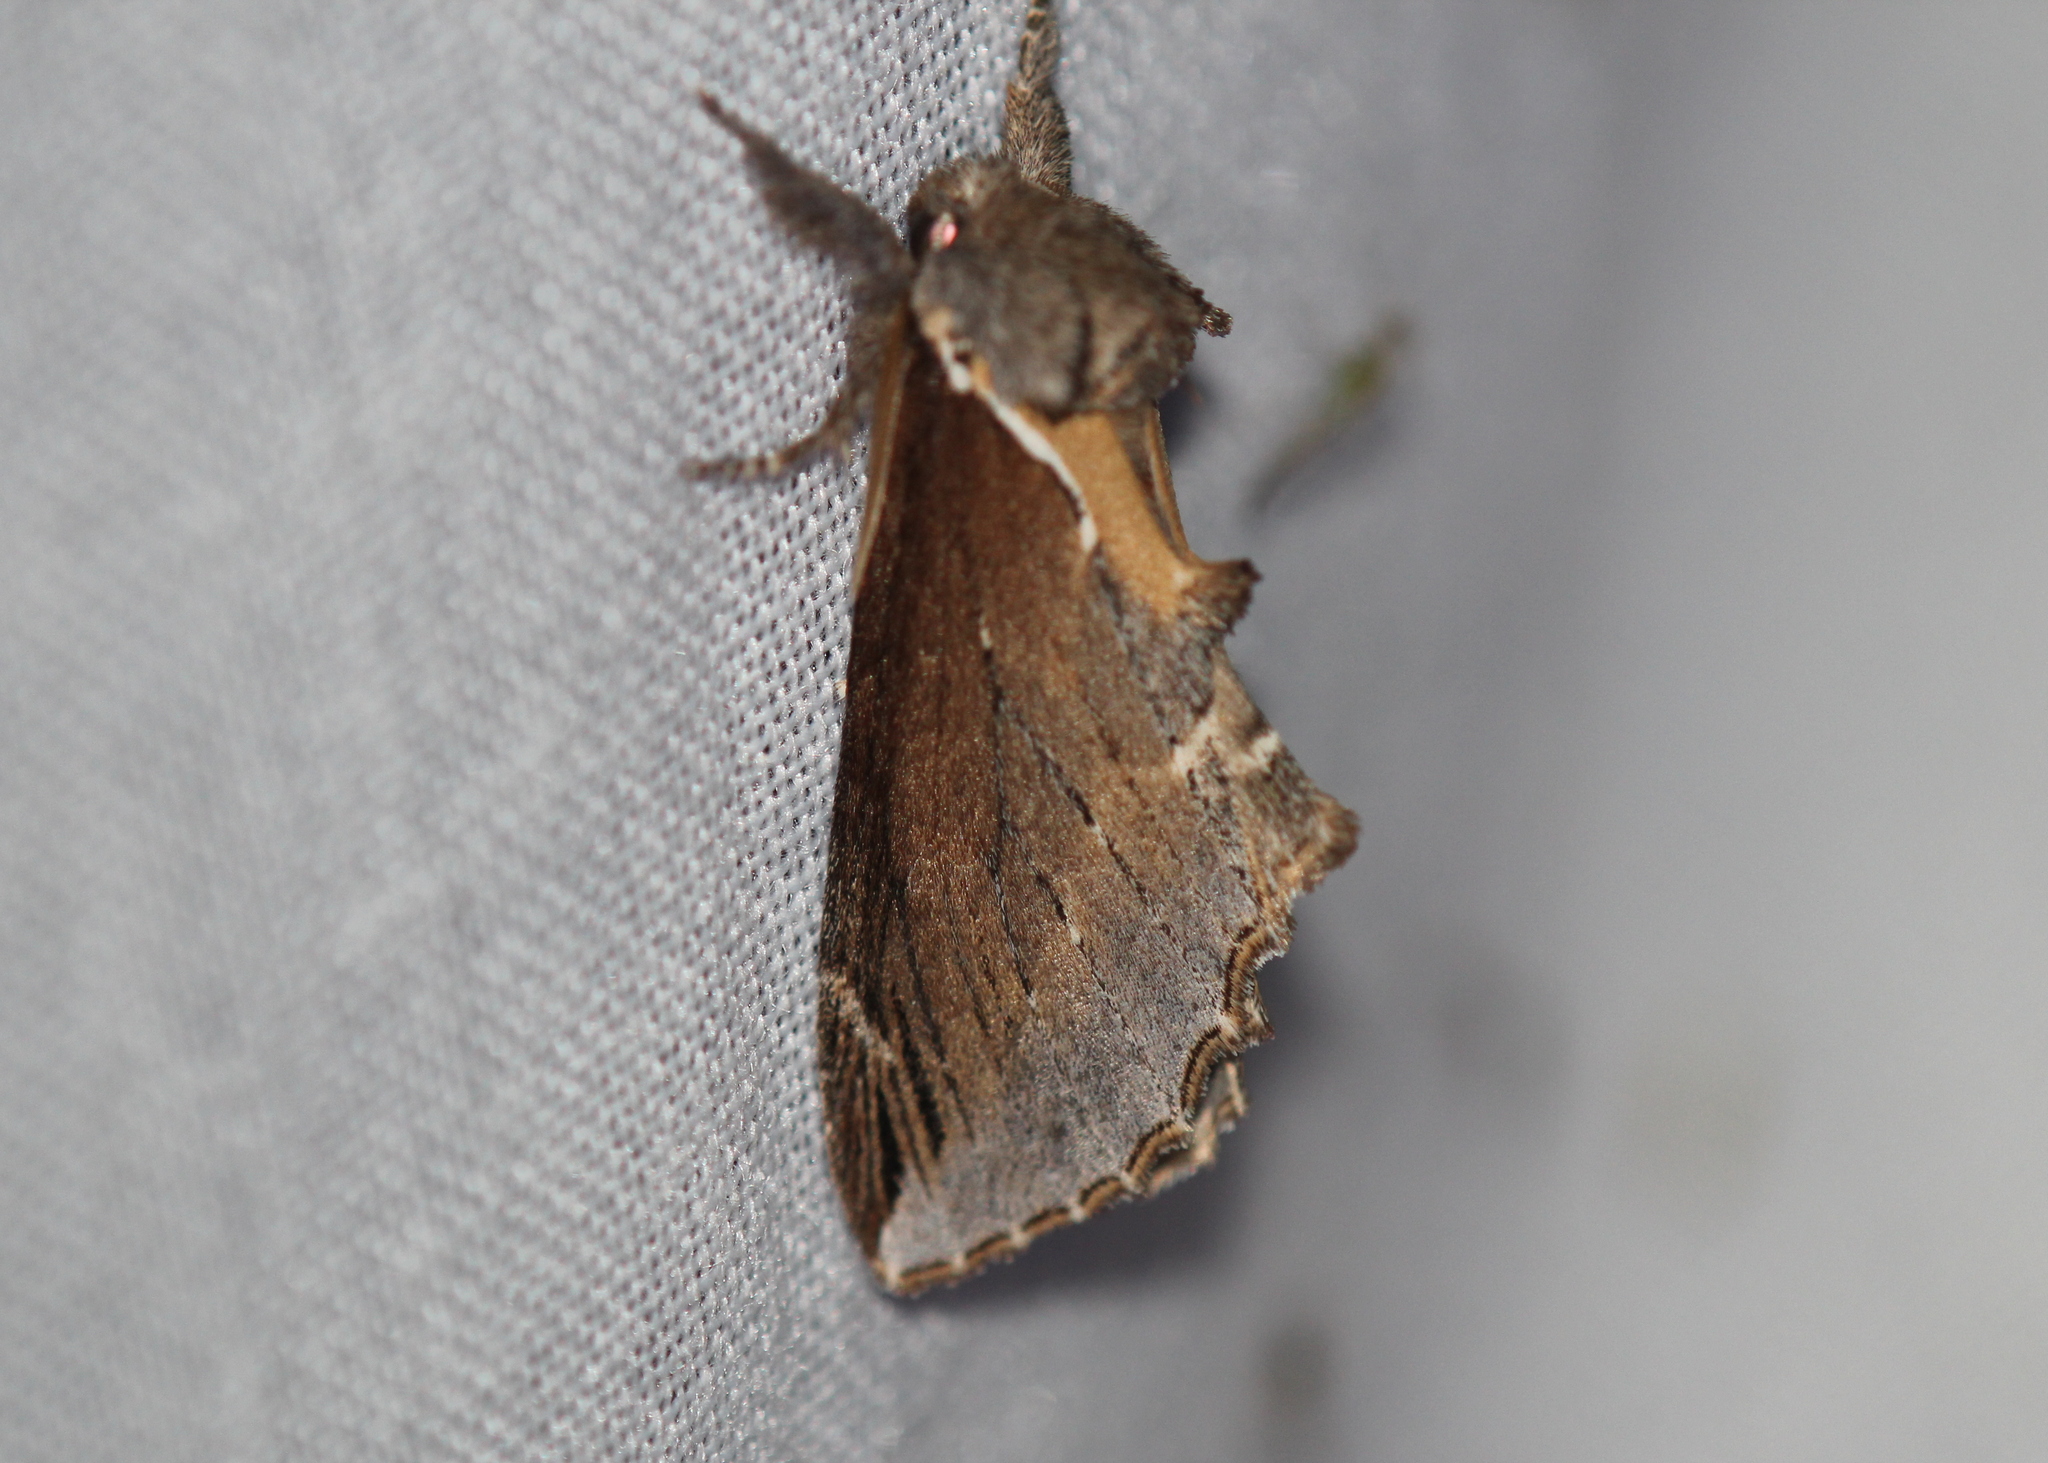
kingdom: Animalia
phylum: Arthropoda
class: Insecta
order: Lepidoptera
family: Notodontidae
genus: Pheosidea
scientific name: Pheosidea elegans
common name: Elegant prominent
